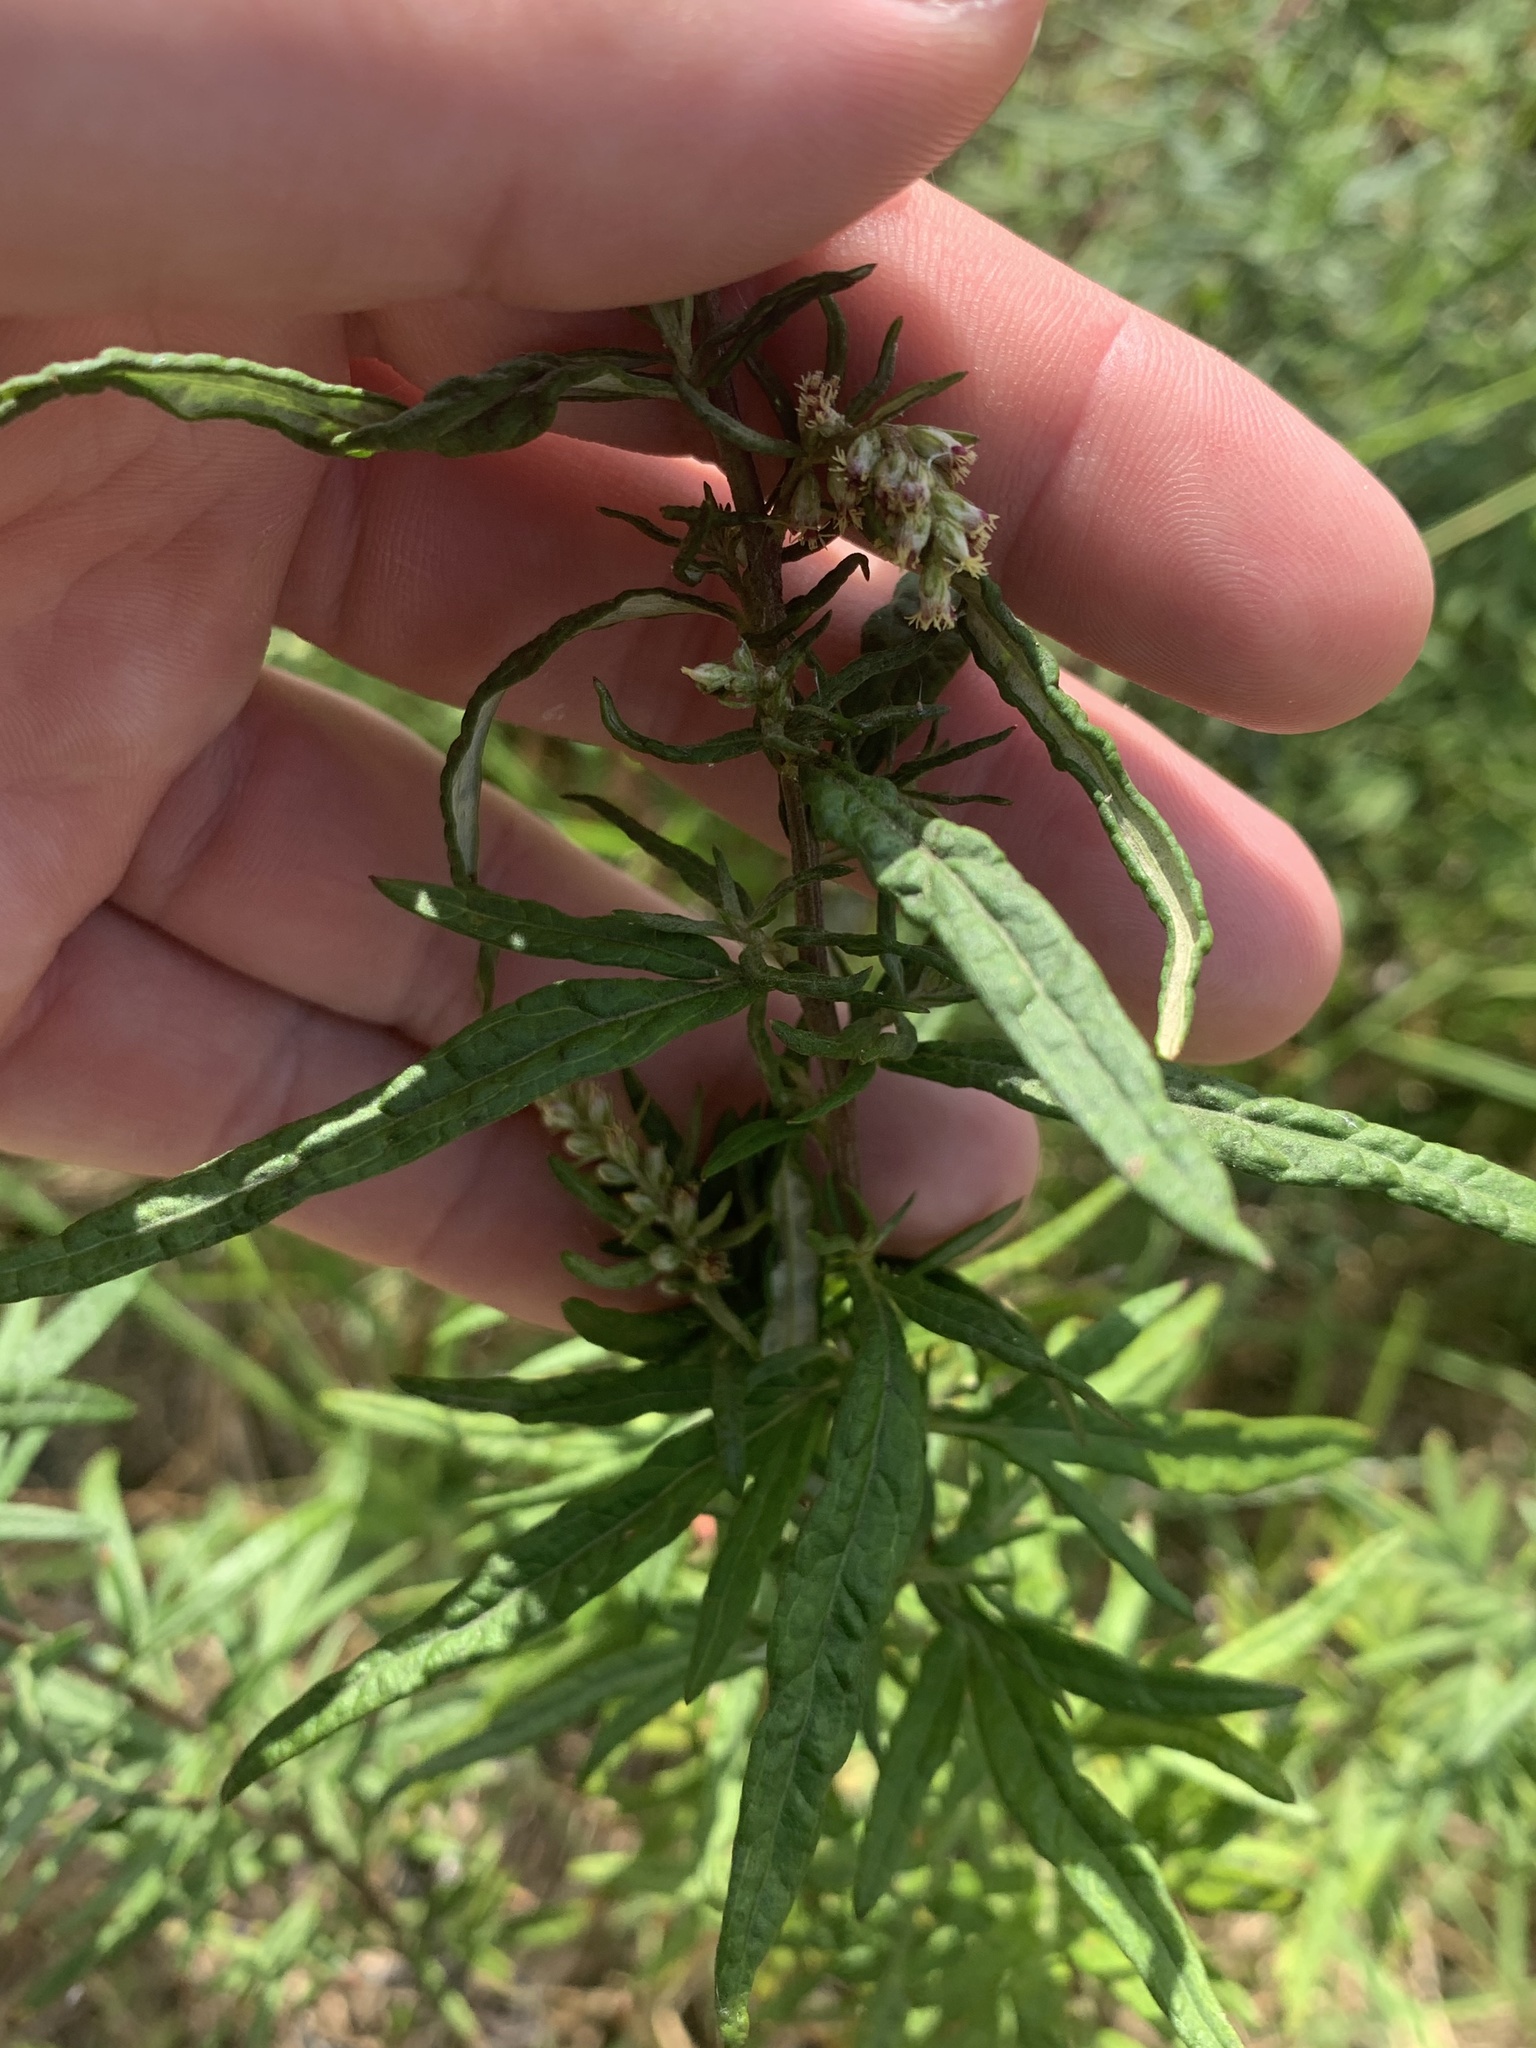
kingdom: Plantae
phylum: Tracheophyta
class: Magnoliopsida
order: Asterales
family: Asteraceae
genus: Artemisia
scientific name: Artemisia verlotiorum
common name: Chinese mugwort
